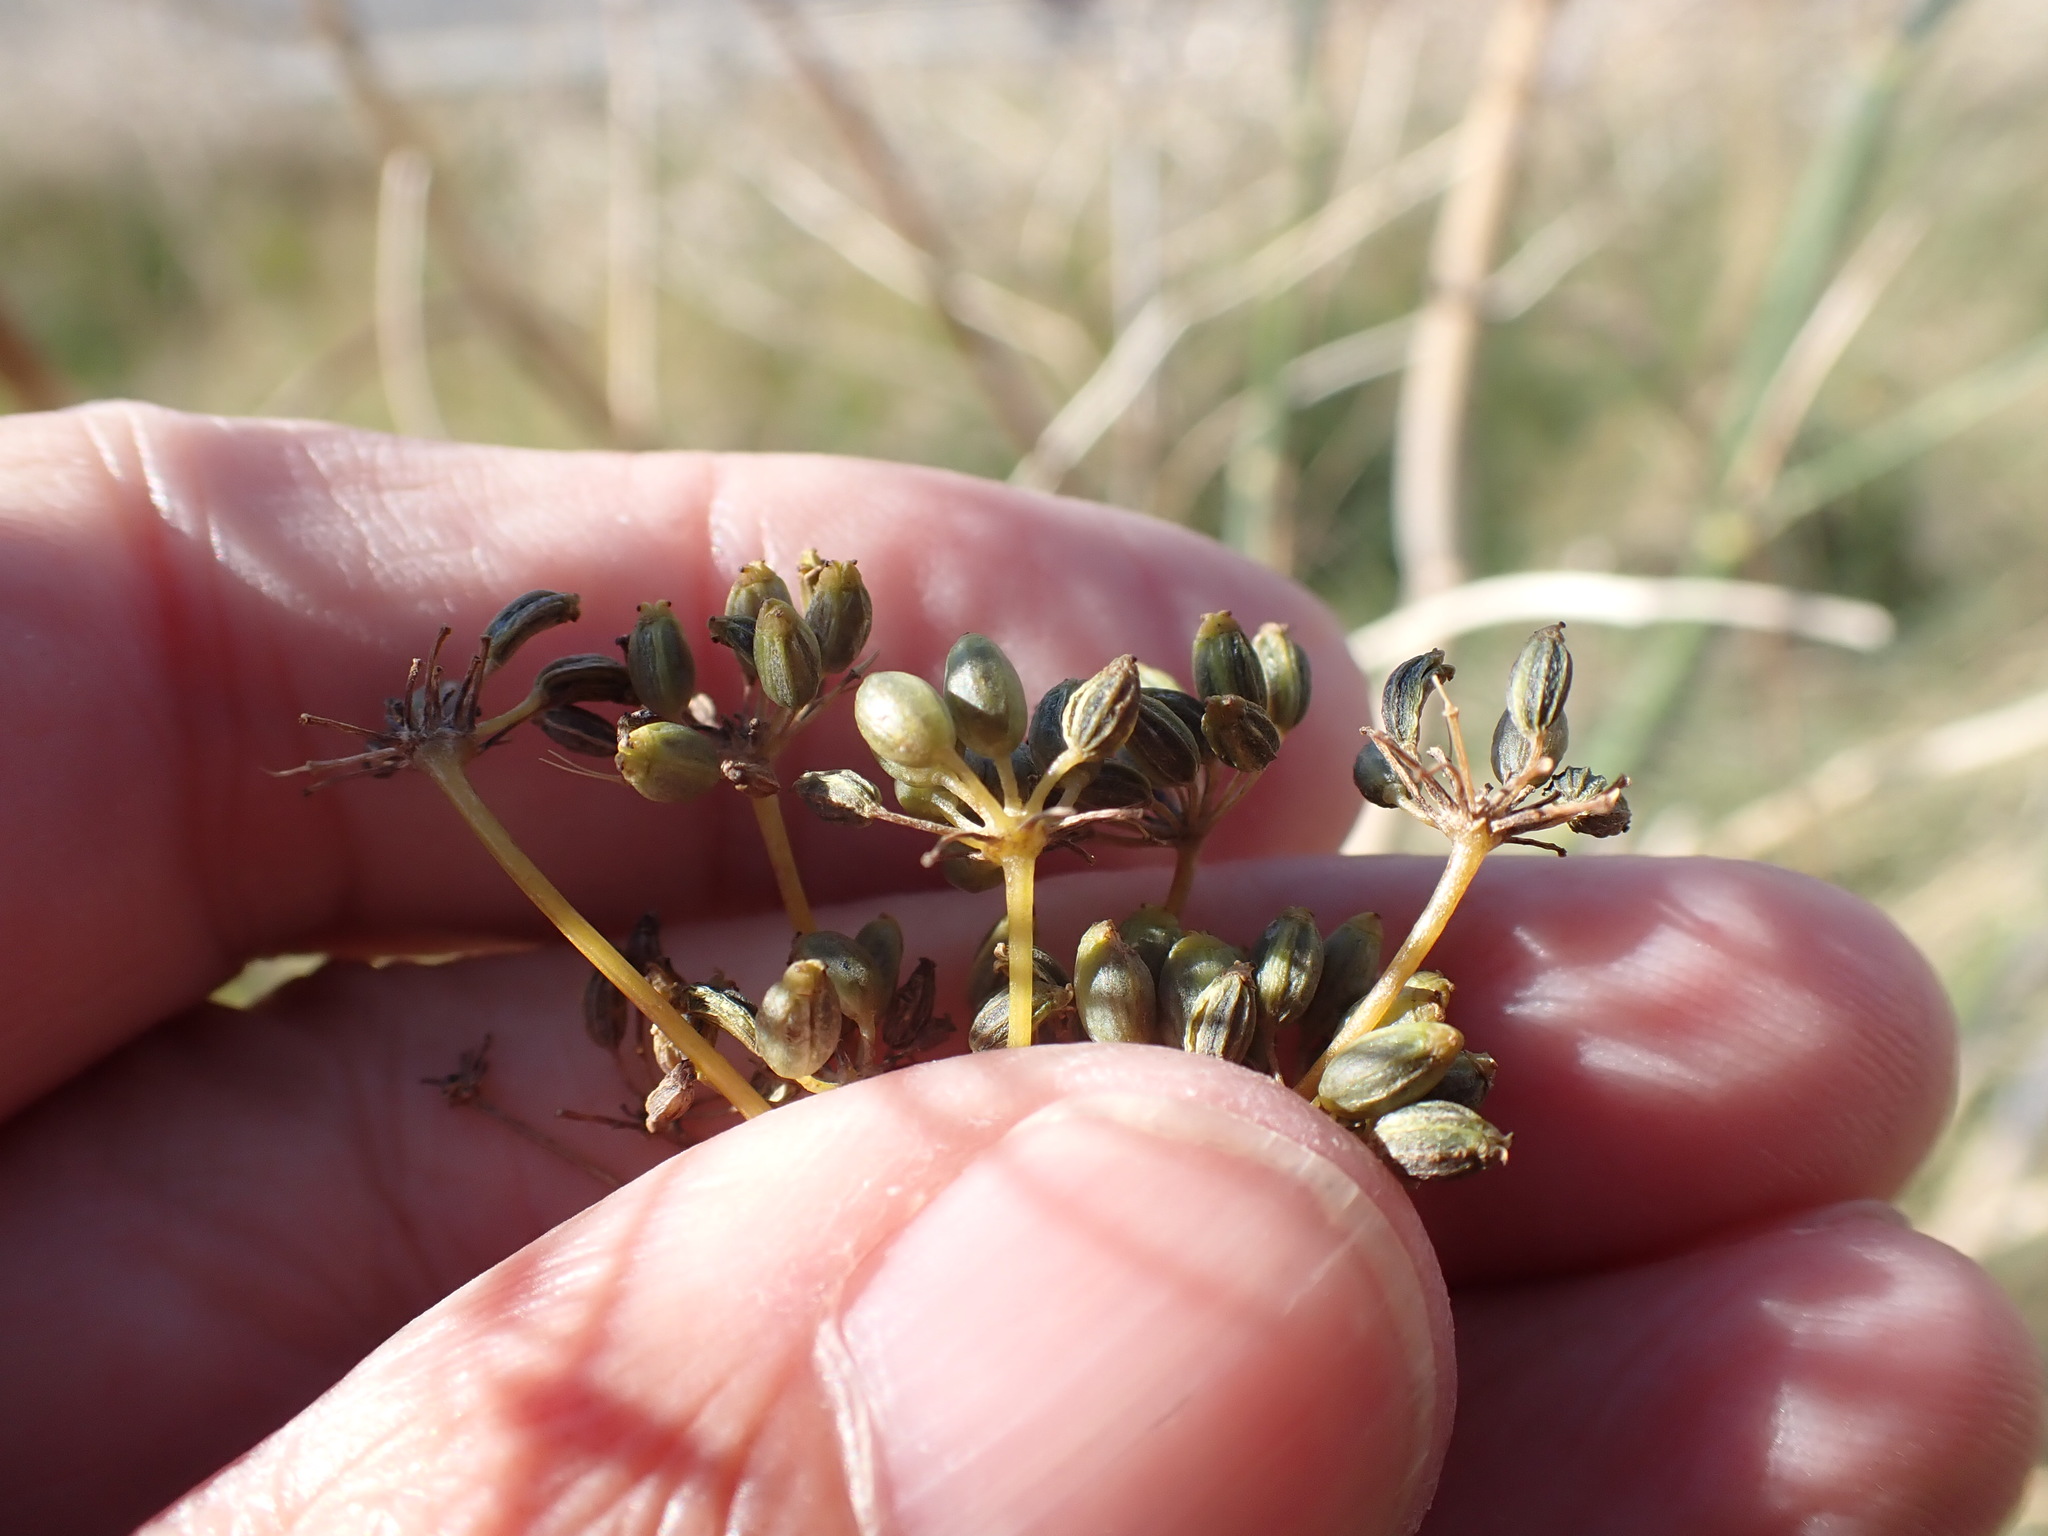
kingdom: Plantae
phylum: Tracheophyta
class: Magnoliopsida
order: Apiales
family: Apiaceae
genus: Foeniculum
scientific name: Foeniculum vulgare
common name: Fennel
